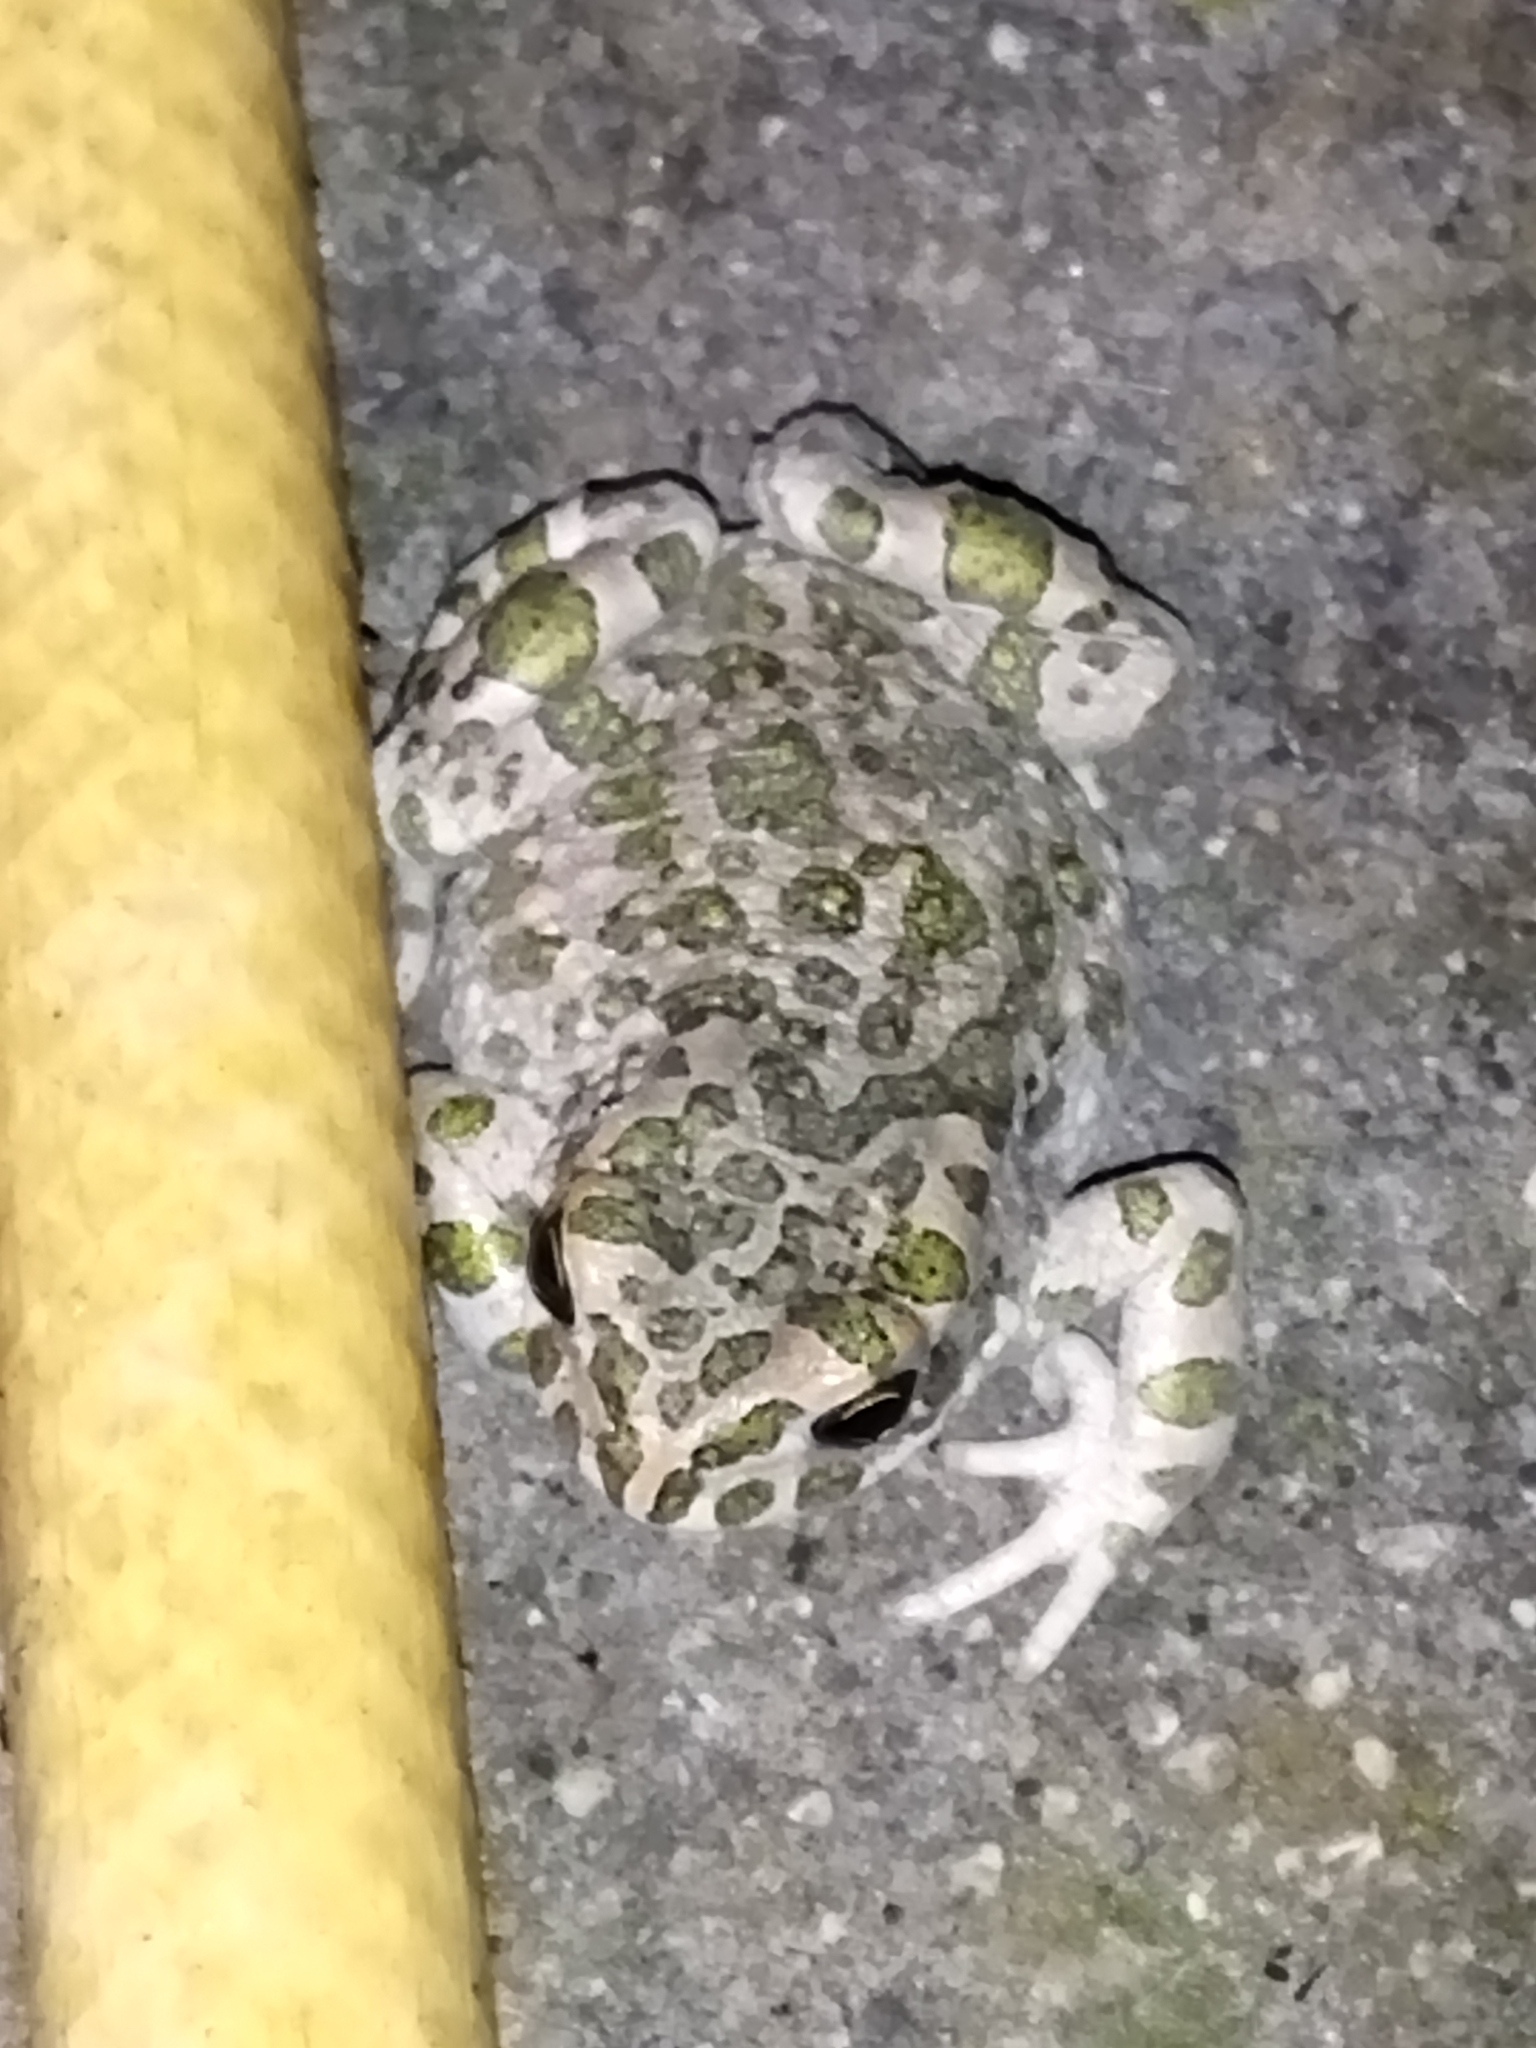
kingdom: Animalia
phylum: Chordata
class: Amphibia
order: Anura
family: Bufonidae
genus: Bufotes
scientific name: Bufotes viridis
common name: European green toad
